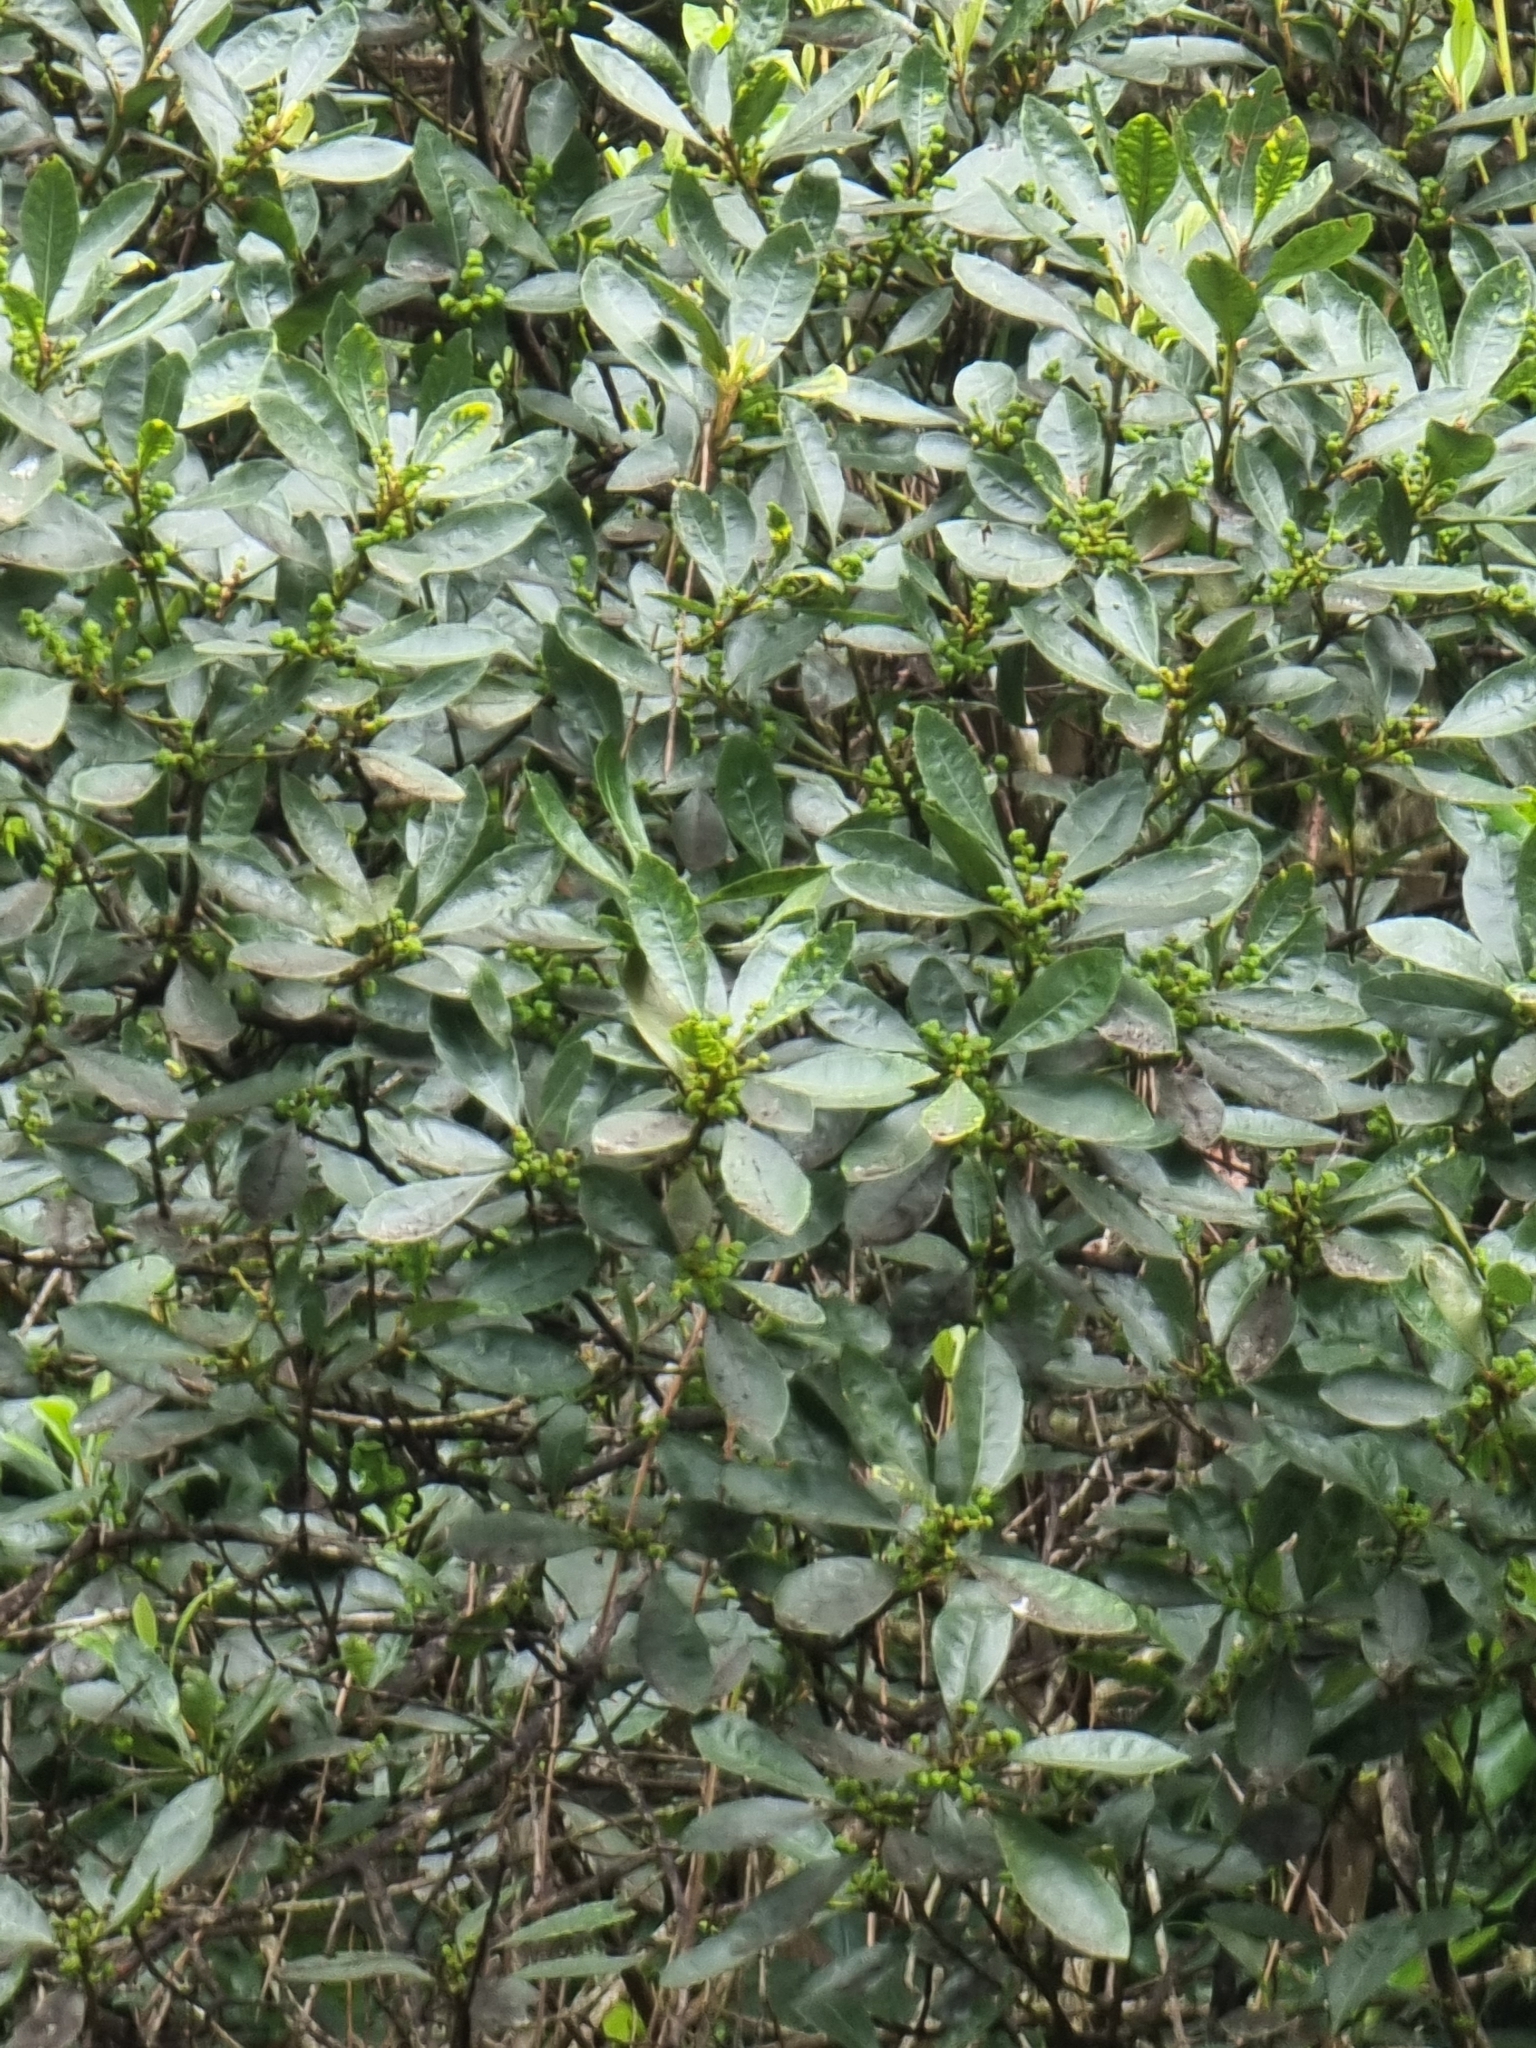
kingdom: Plantae
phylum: Tracheophyta
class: Magnoliopsida
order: Fagales
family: Myricaceae
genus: Morella
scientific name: Morella faya
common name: Firetree
